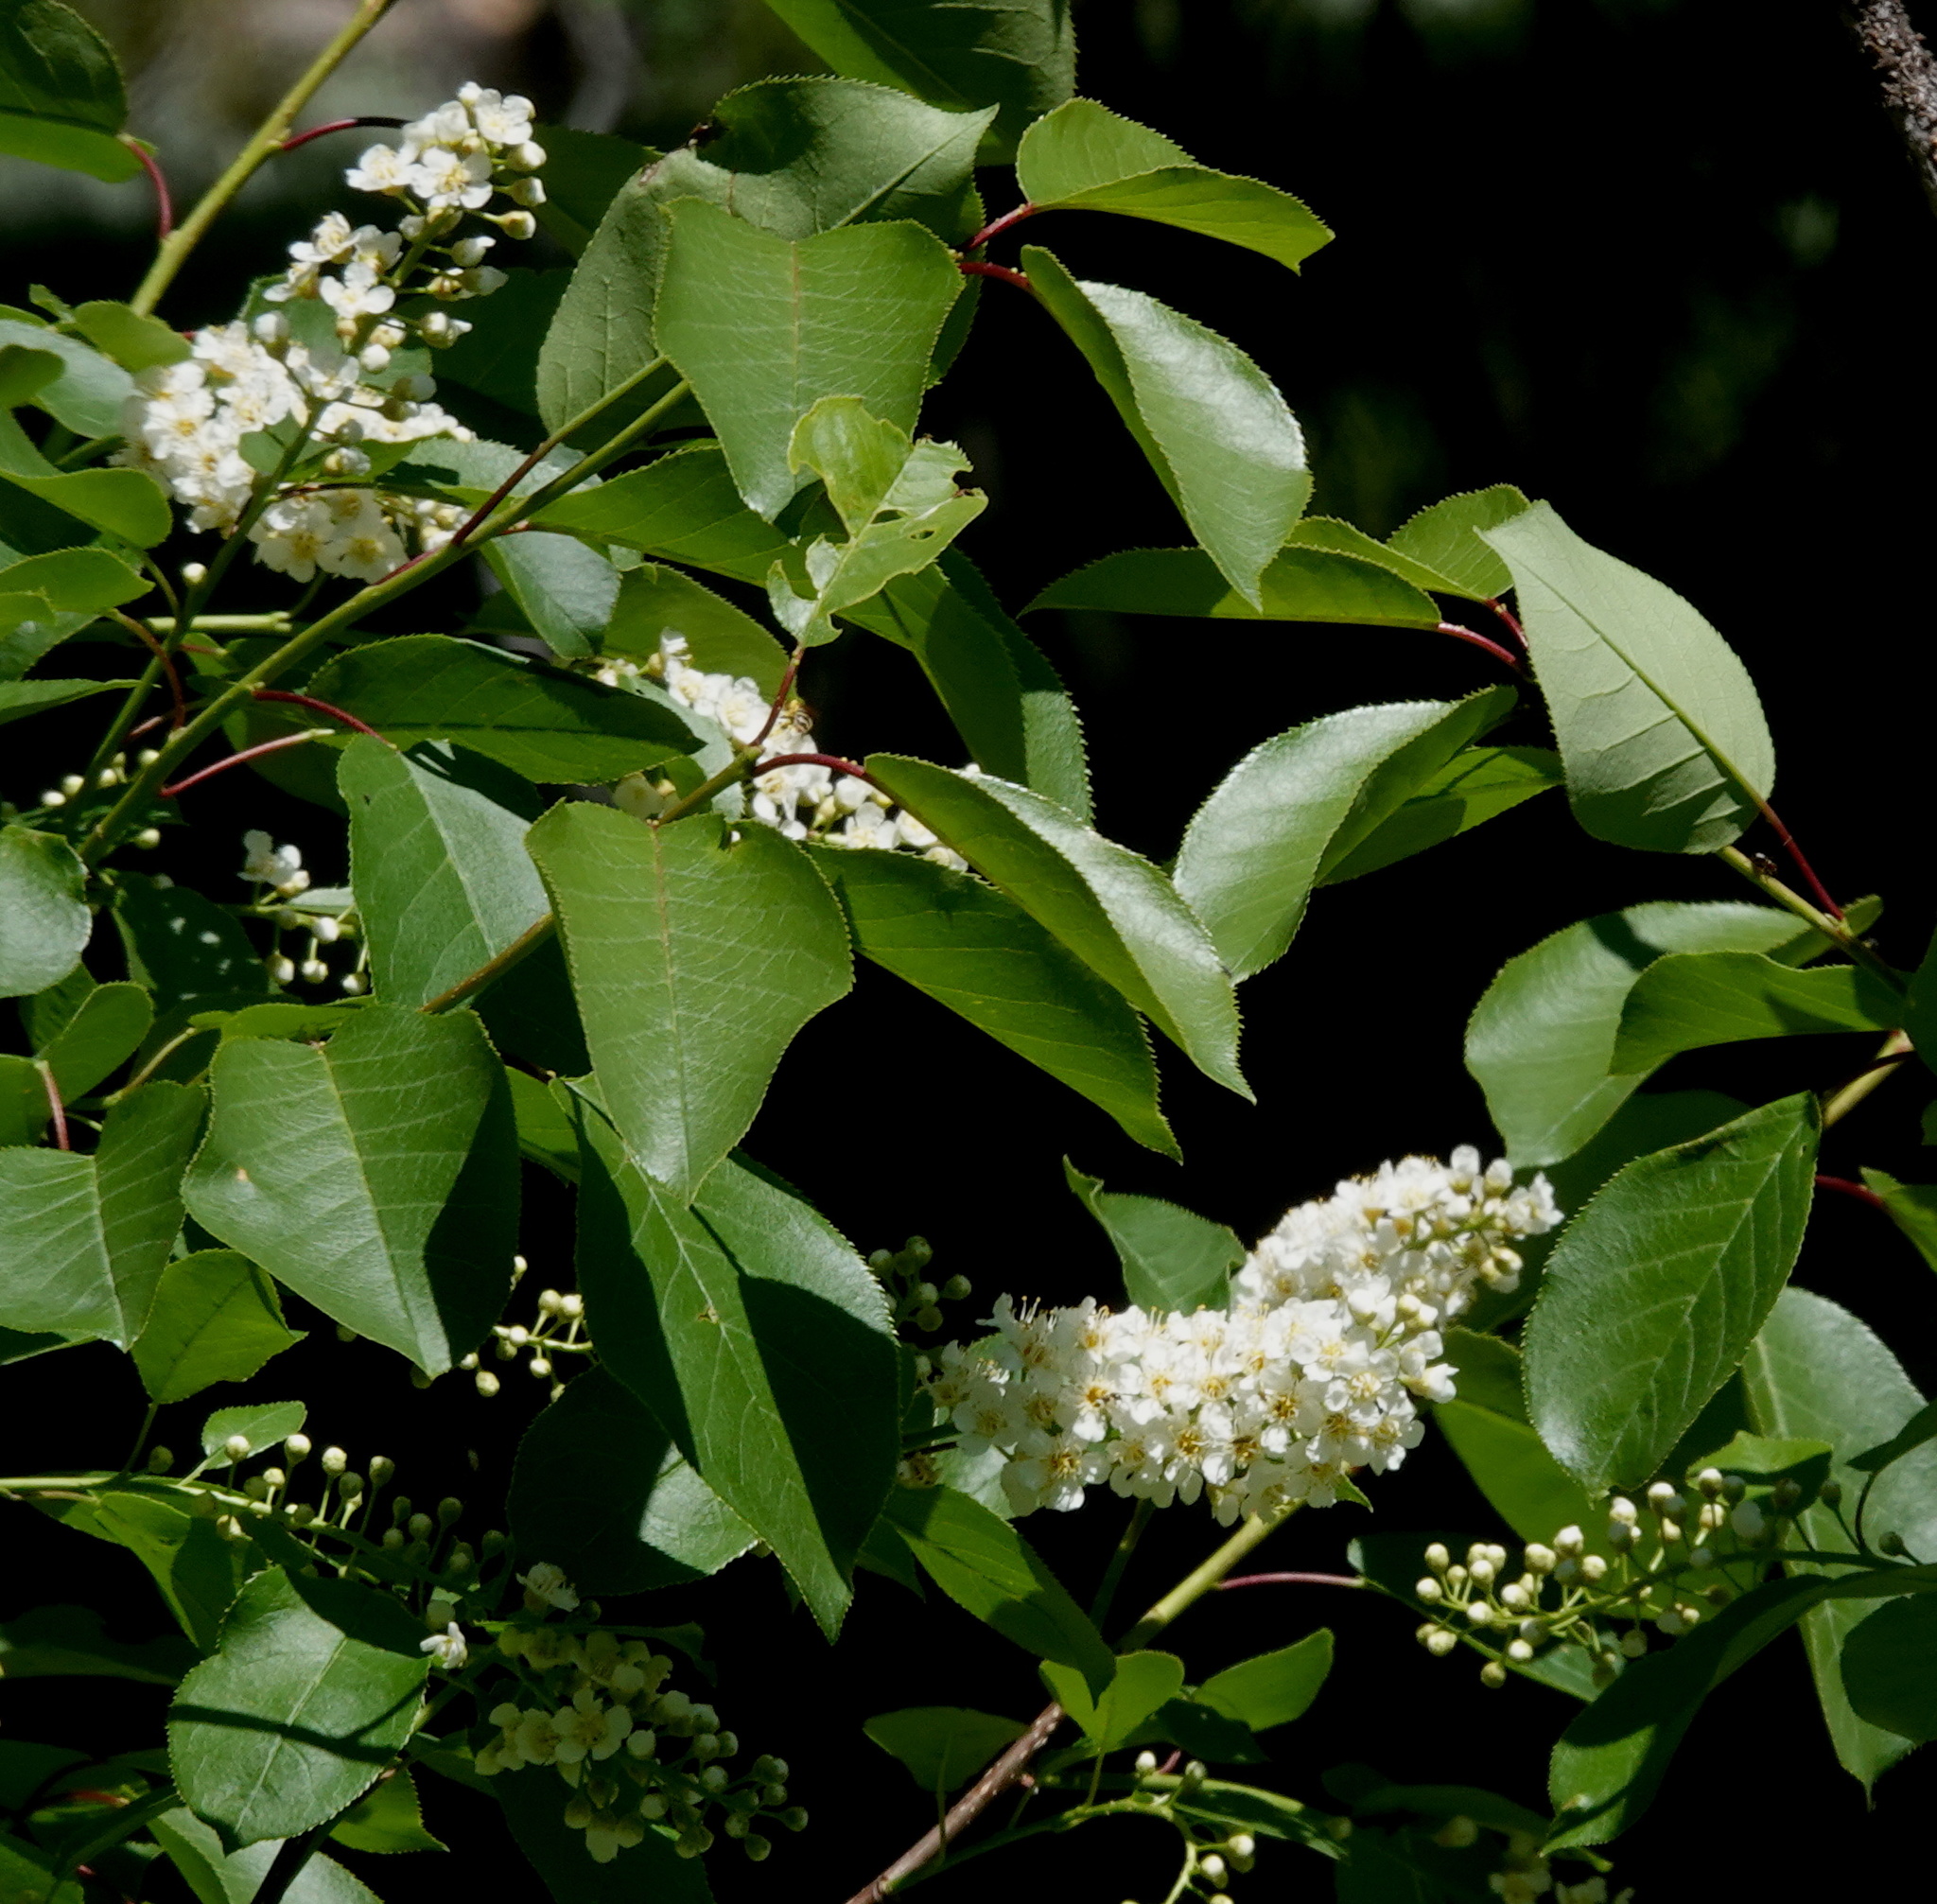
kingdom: Plantae
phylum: Tracheophyta
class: Magnoliopsida
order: Rosales
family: Rosaceae
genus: Prunus
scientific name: Prunus virginiana
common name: Chokecherry
